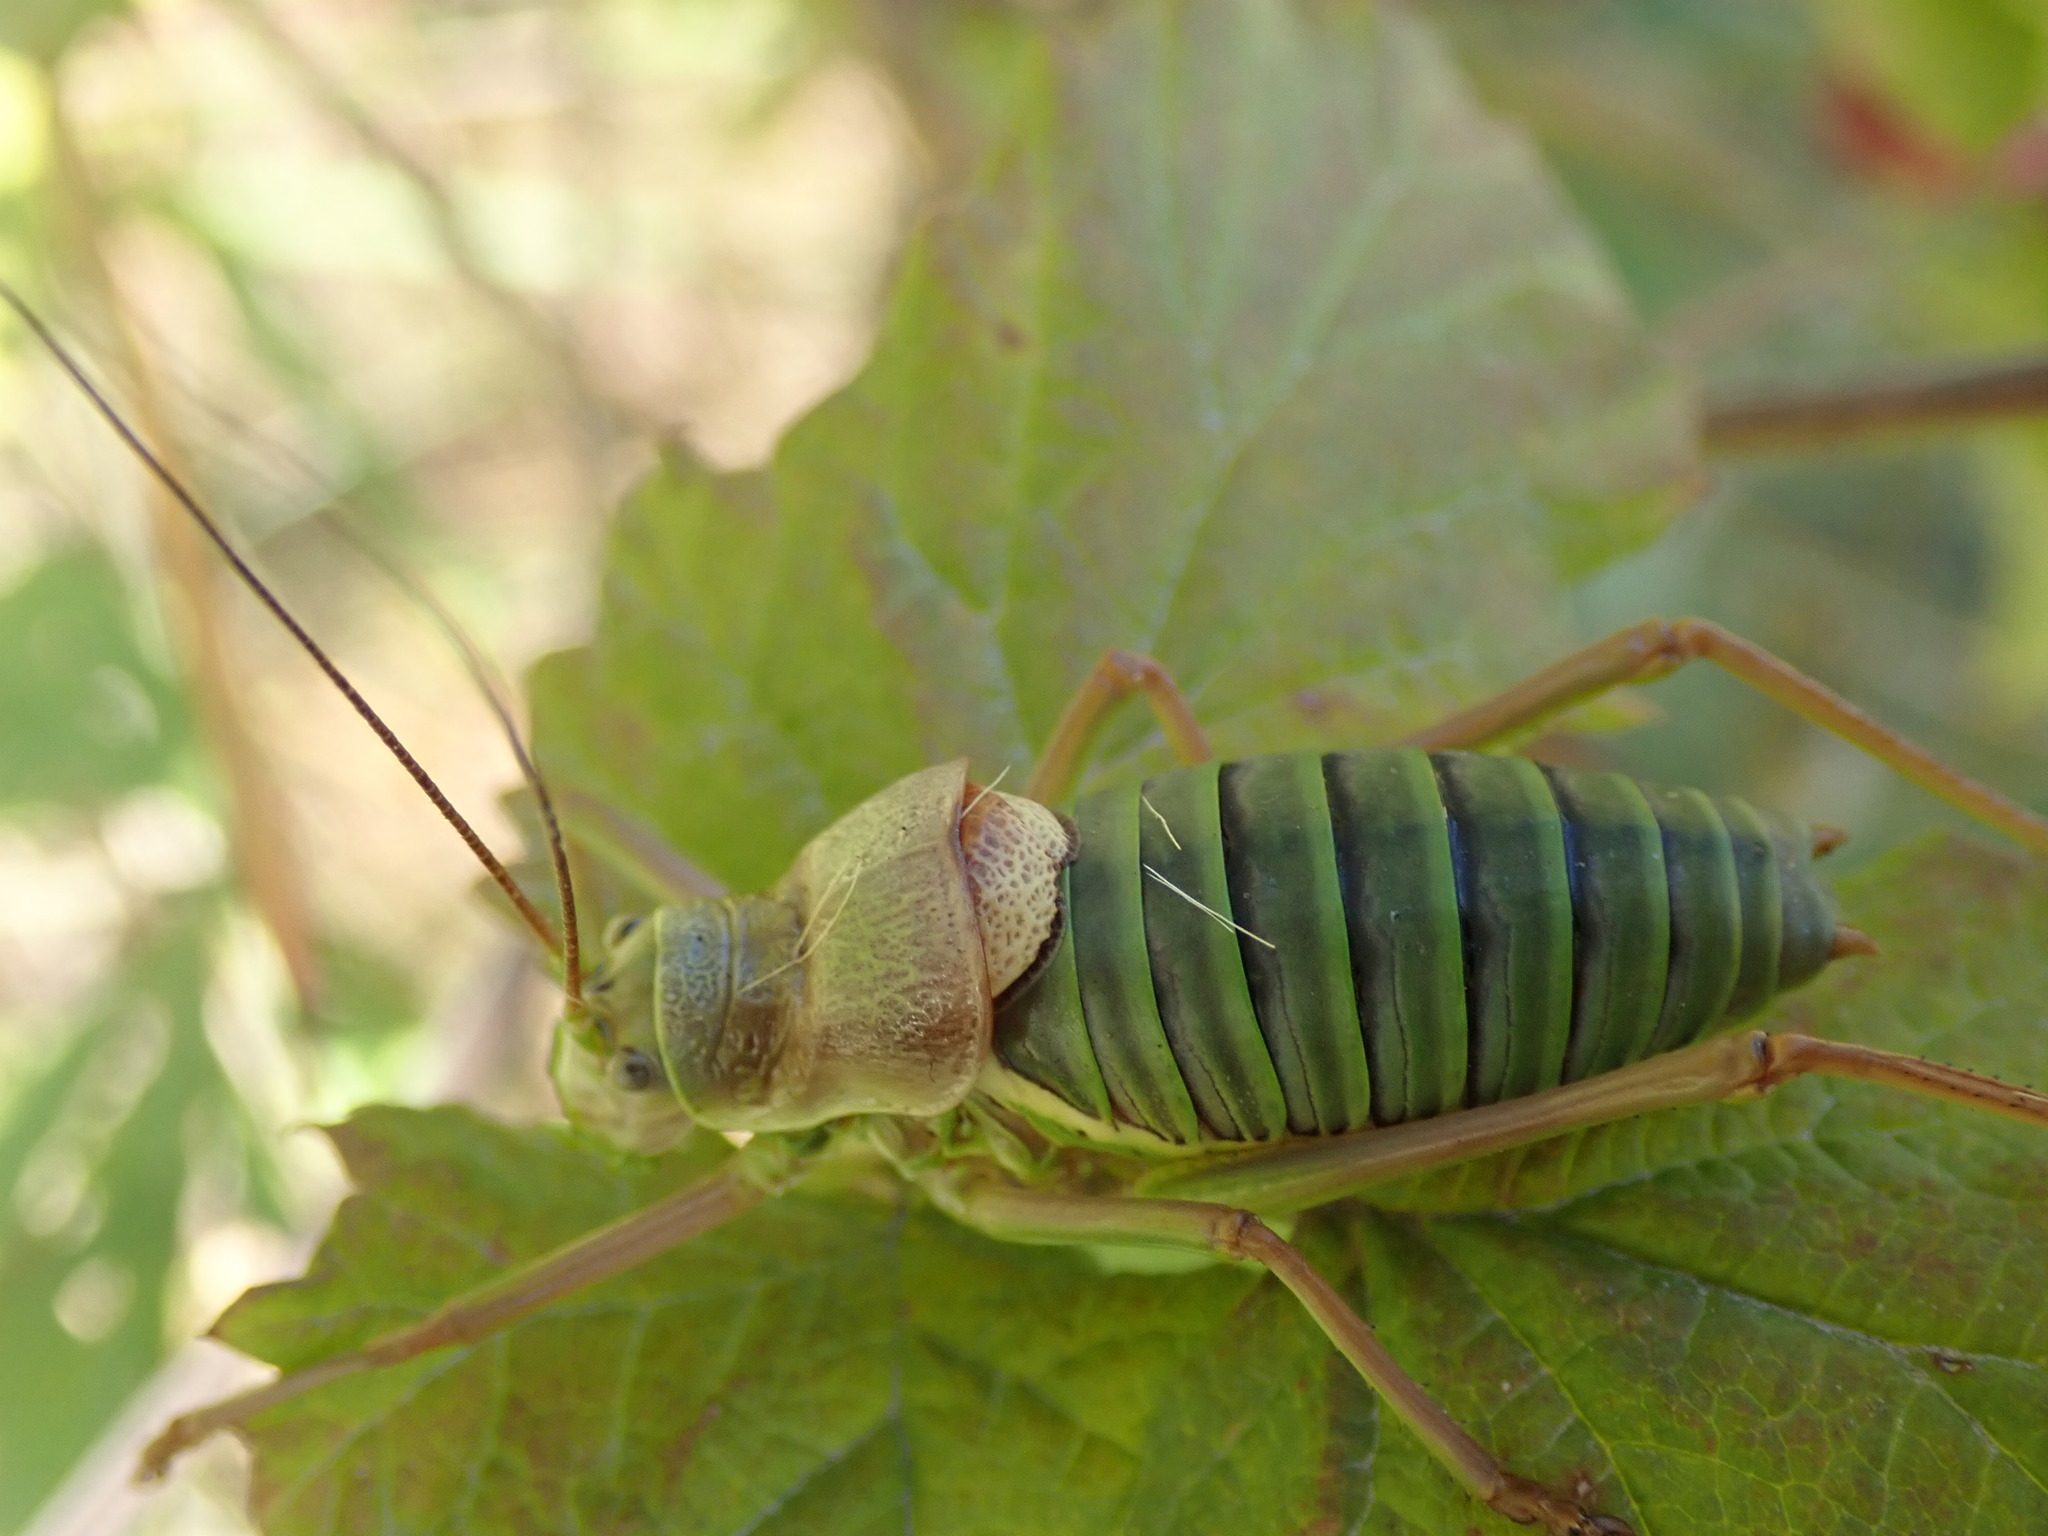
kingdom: Animalia
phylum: Arthropoda
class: Insecta
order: Orthoptera
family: Tettigoniidae
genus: Ephippiger
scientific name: Ephippiger diurnus
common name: Western saddle bush-cricket
